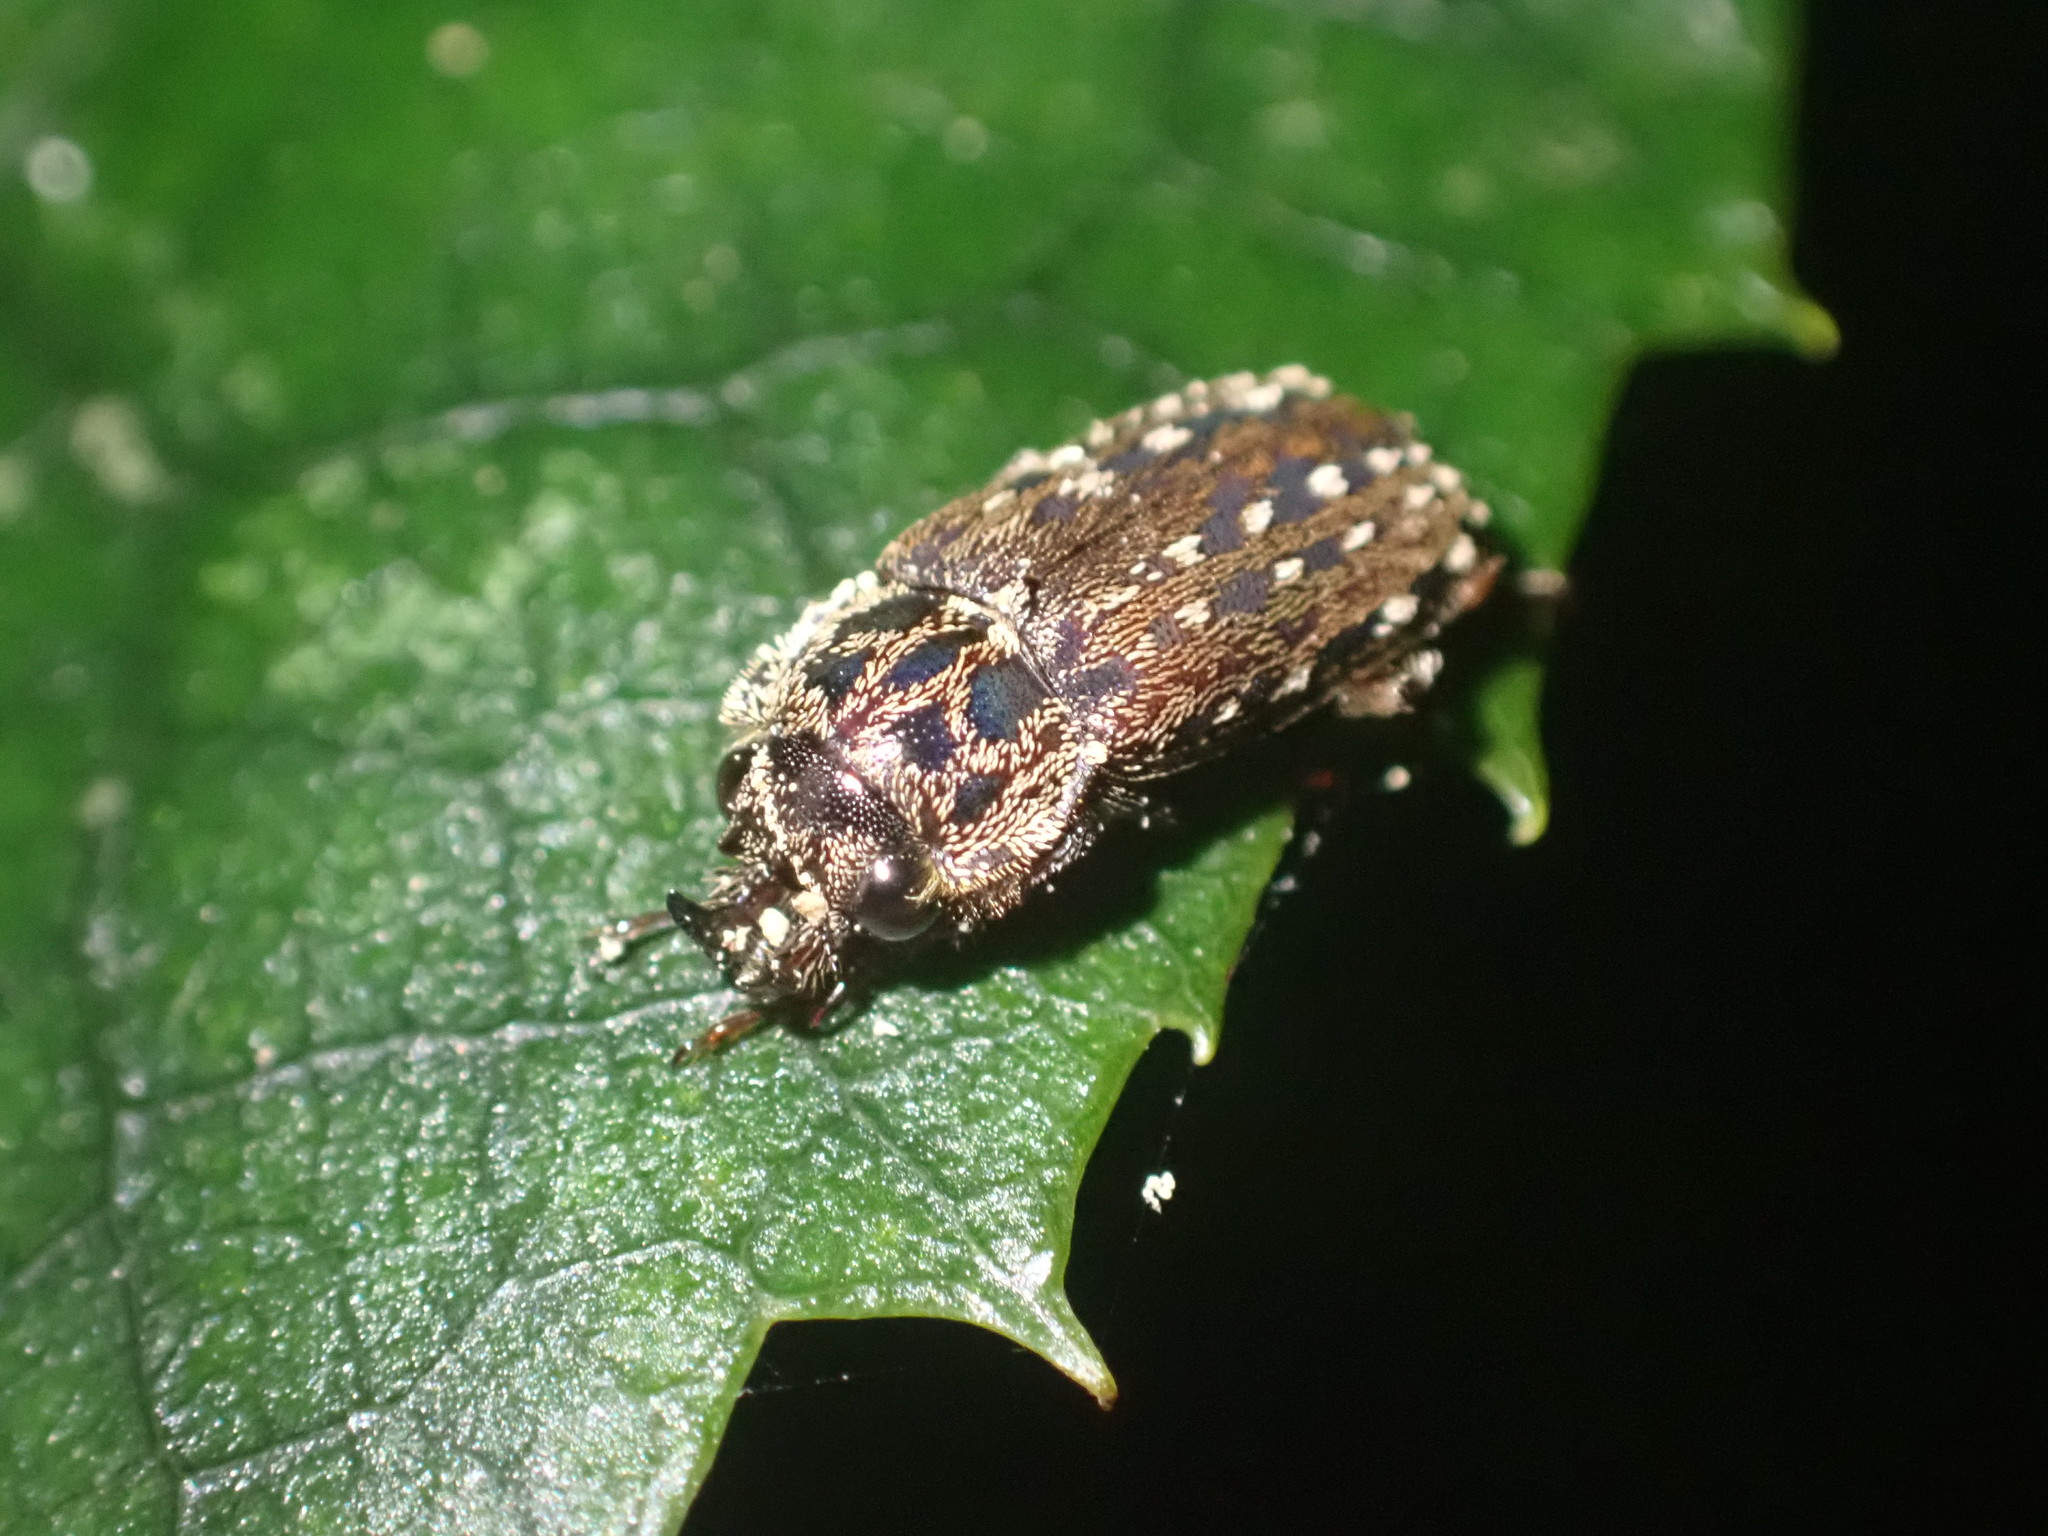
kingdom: Animalia
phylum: Arthropoda
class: Insecta
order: Coleoptera
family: Lucanidae
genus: Mitophyllus
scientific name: Mitophyllus irroratus
